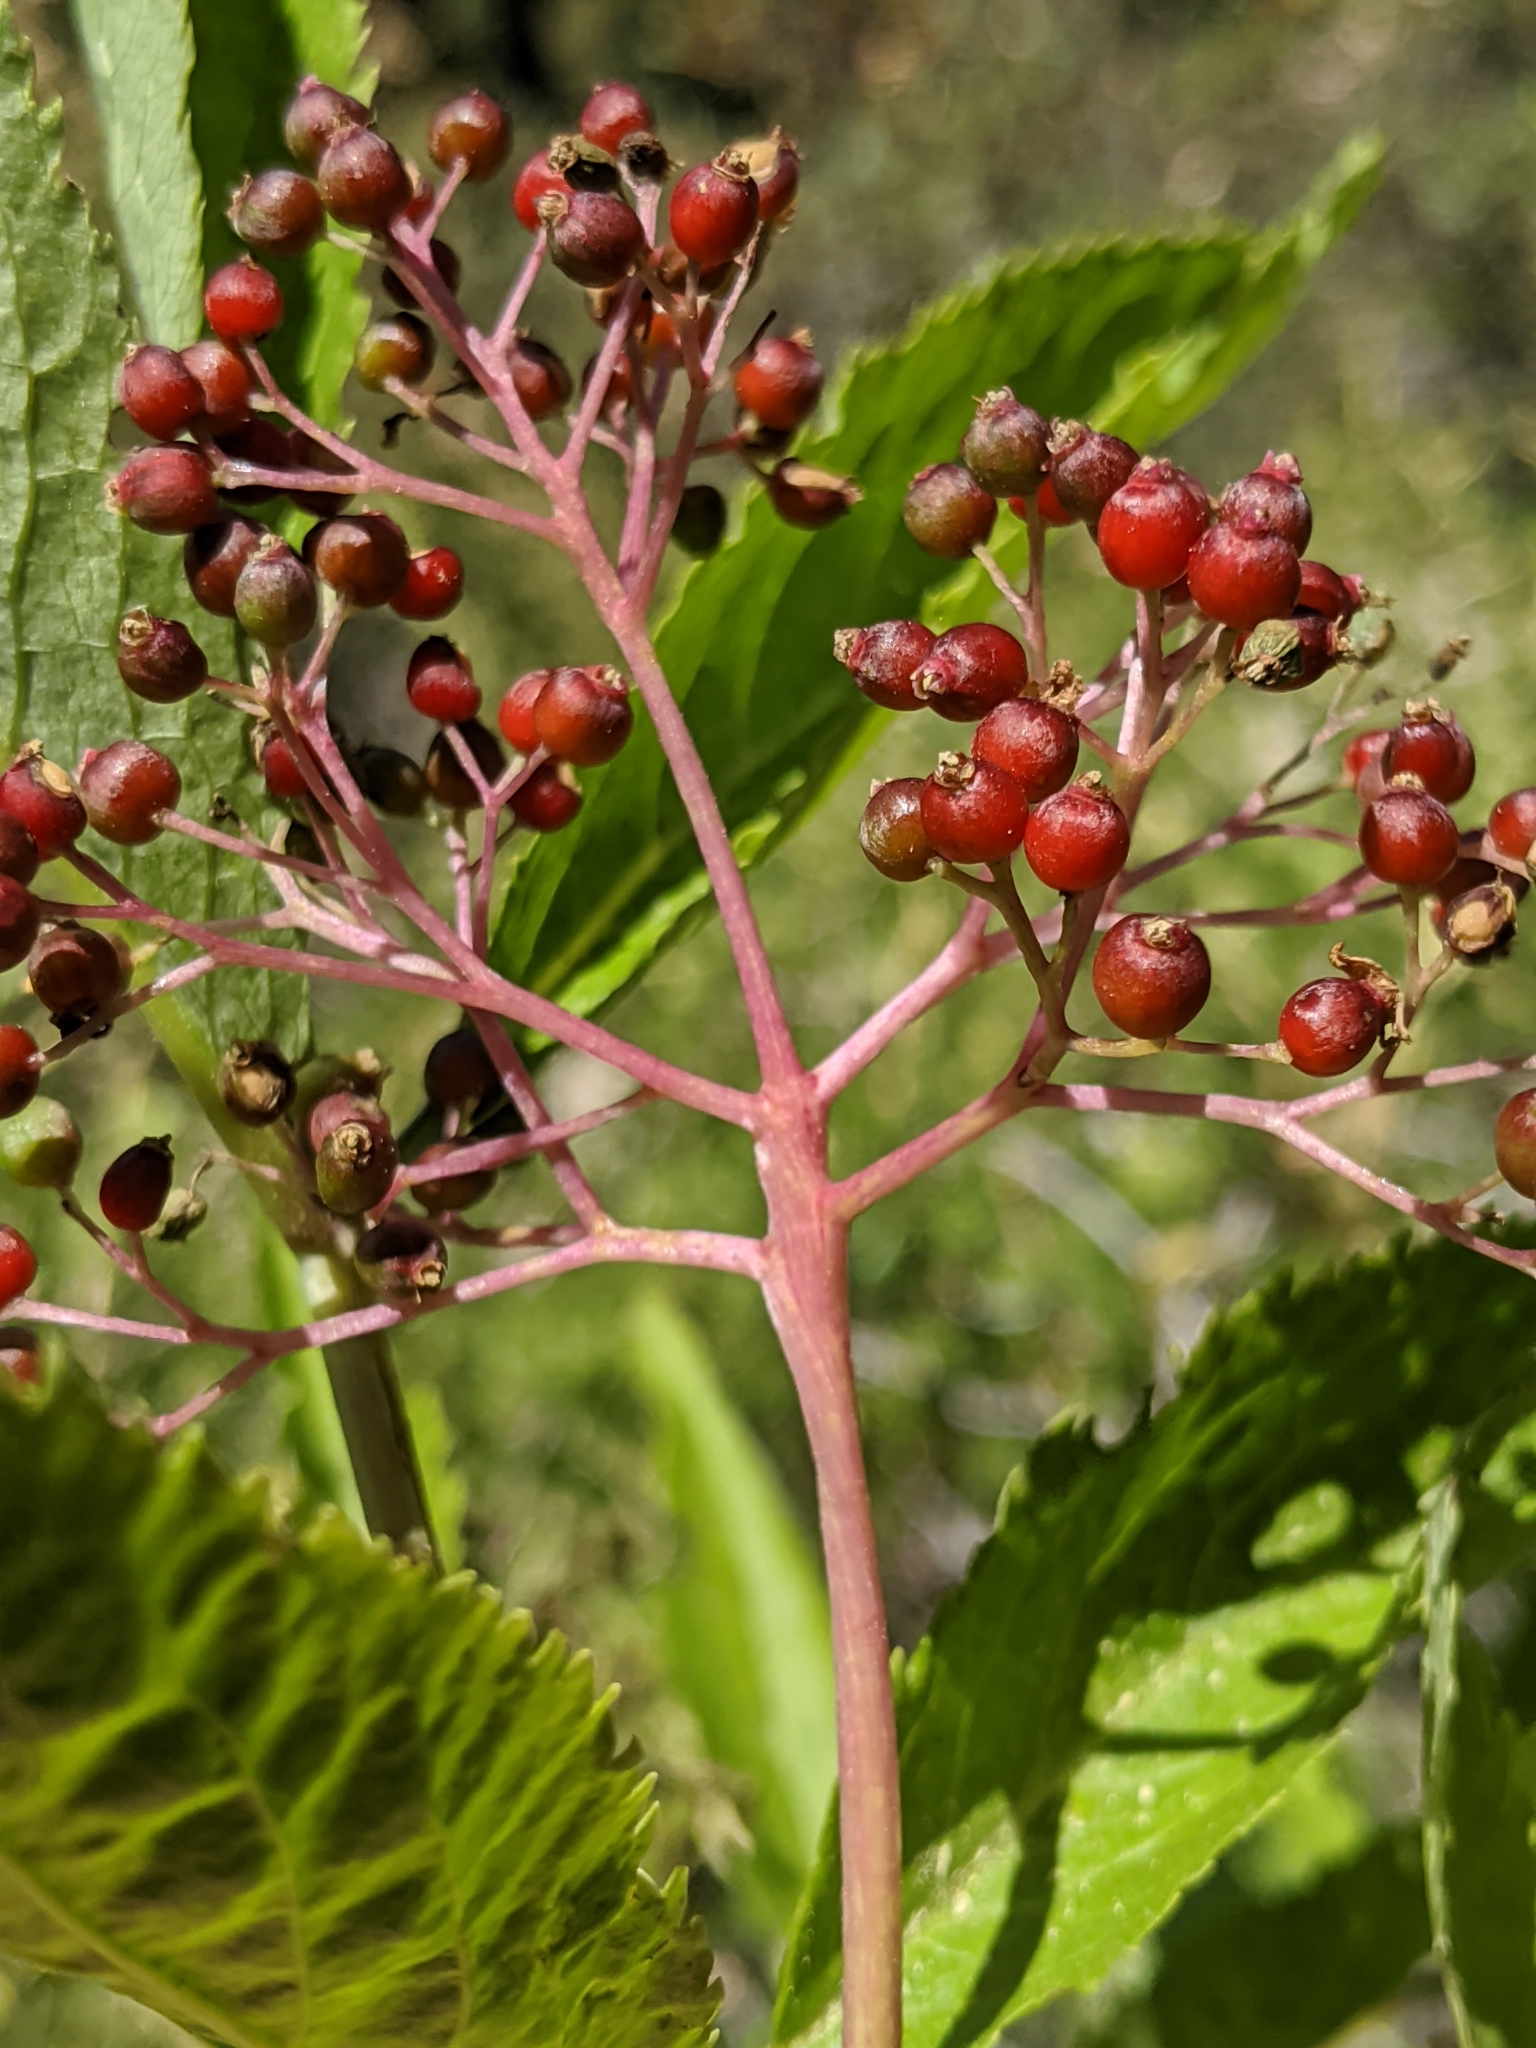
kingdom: Plantae
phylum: Tracheophyta
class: Magnoliopsida
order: Dipsacales
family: Viburnaceae
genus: Sambucus
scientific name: Sambucus racemosa
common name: Red-berried elder
